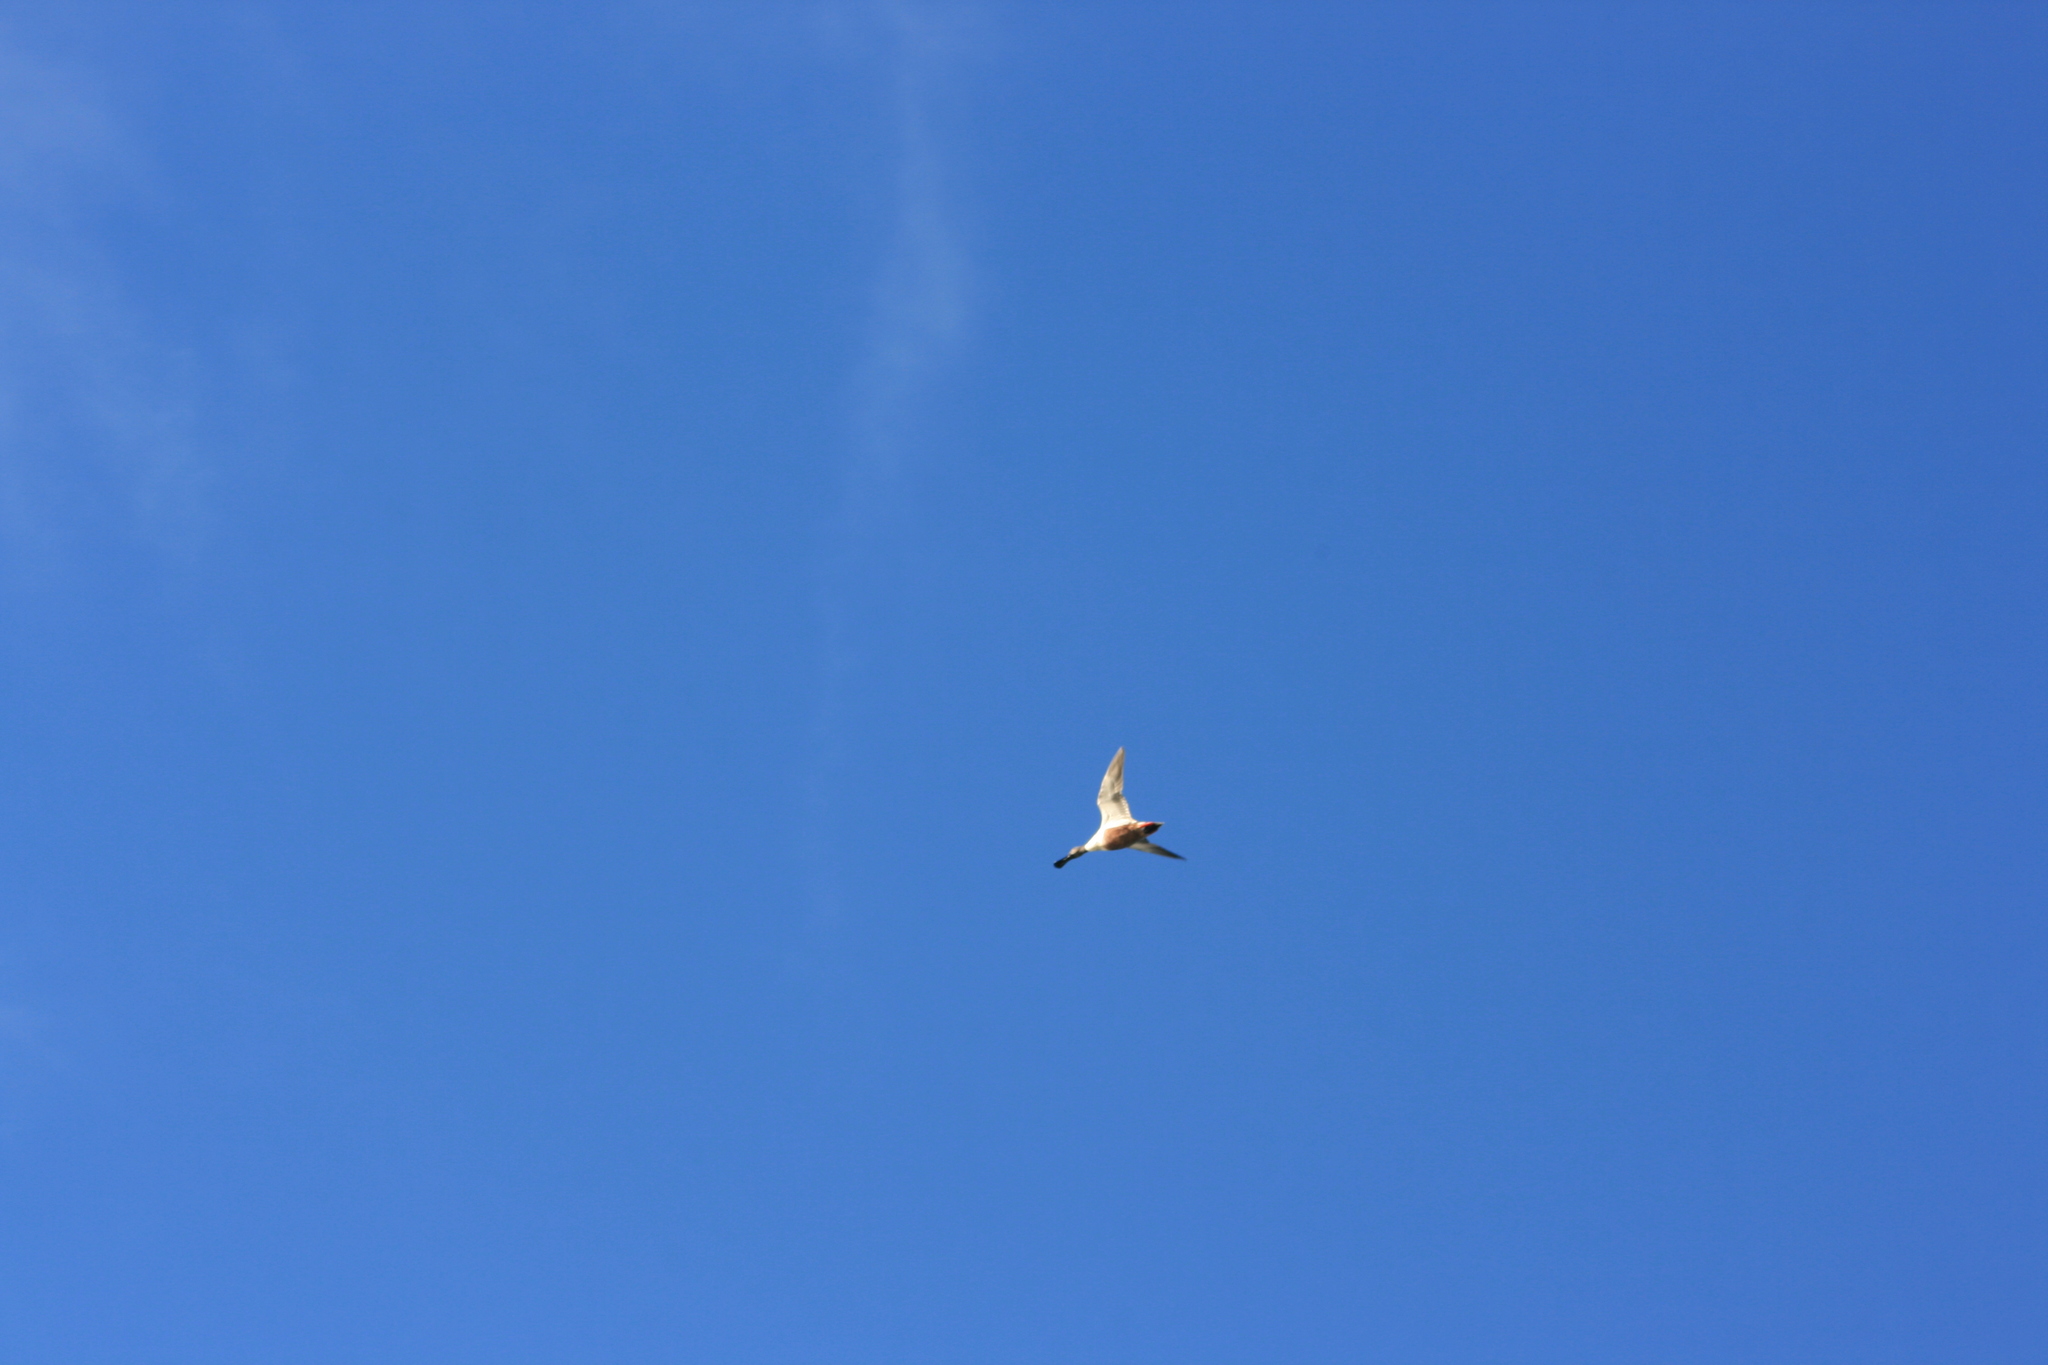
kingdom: Animalia
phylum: Chordata
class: Aves
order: Anseriformes
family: Anatidae
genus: Spatula
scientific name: Spatula clypeata
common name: Northern shoveler
